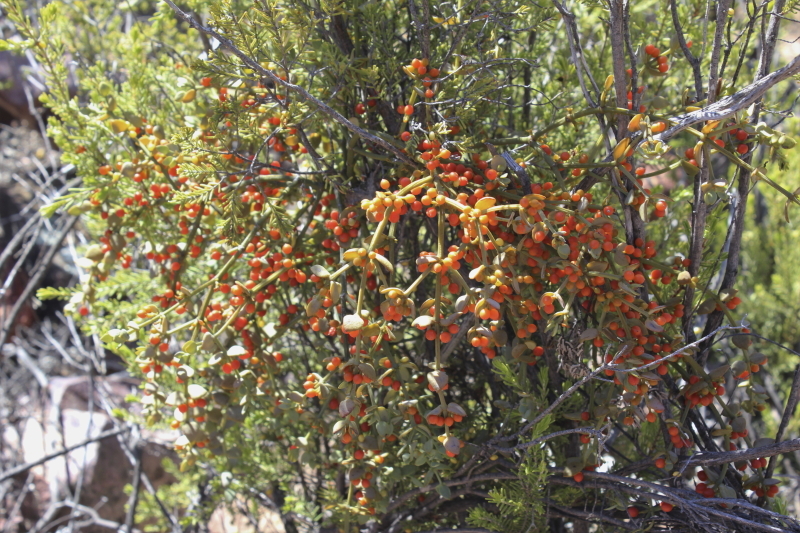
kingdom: Plantae
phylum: Tracheophyta
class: Magnoliopsida
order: Santalales
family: Viscaceae
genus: Viscum
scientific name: Viscum rotundifolium
